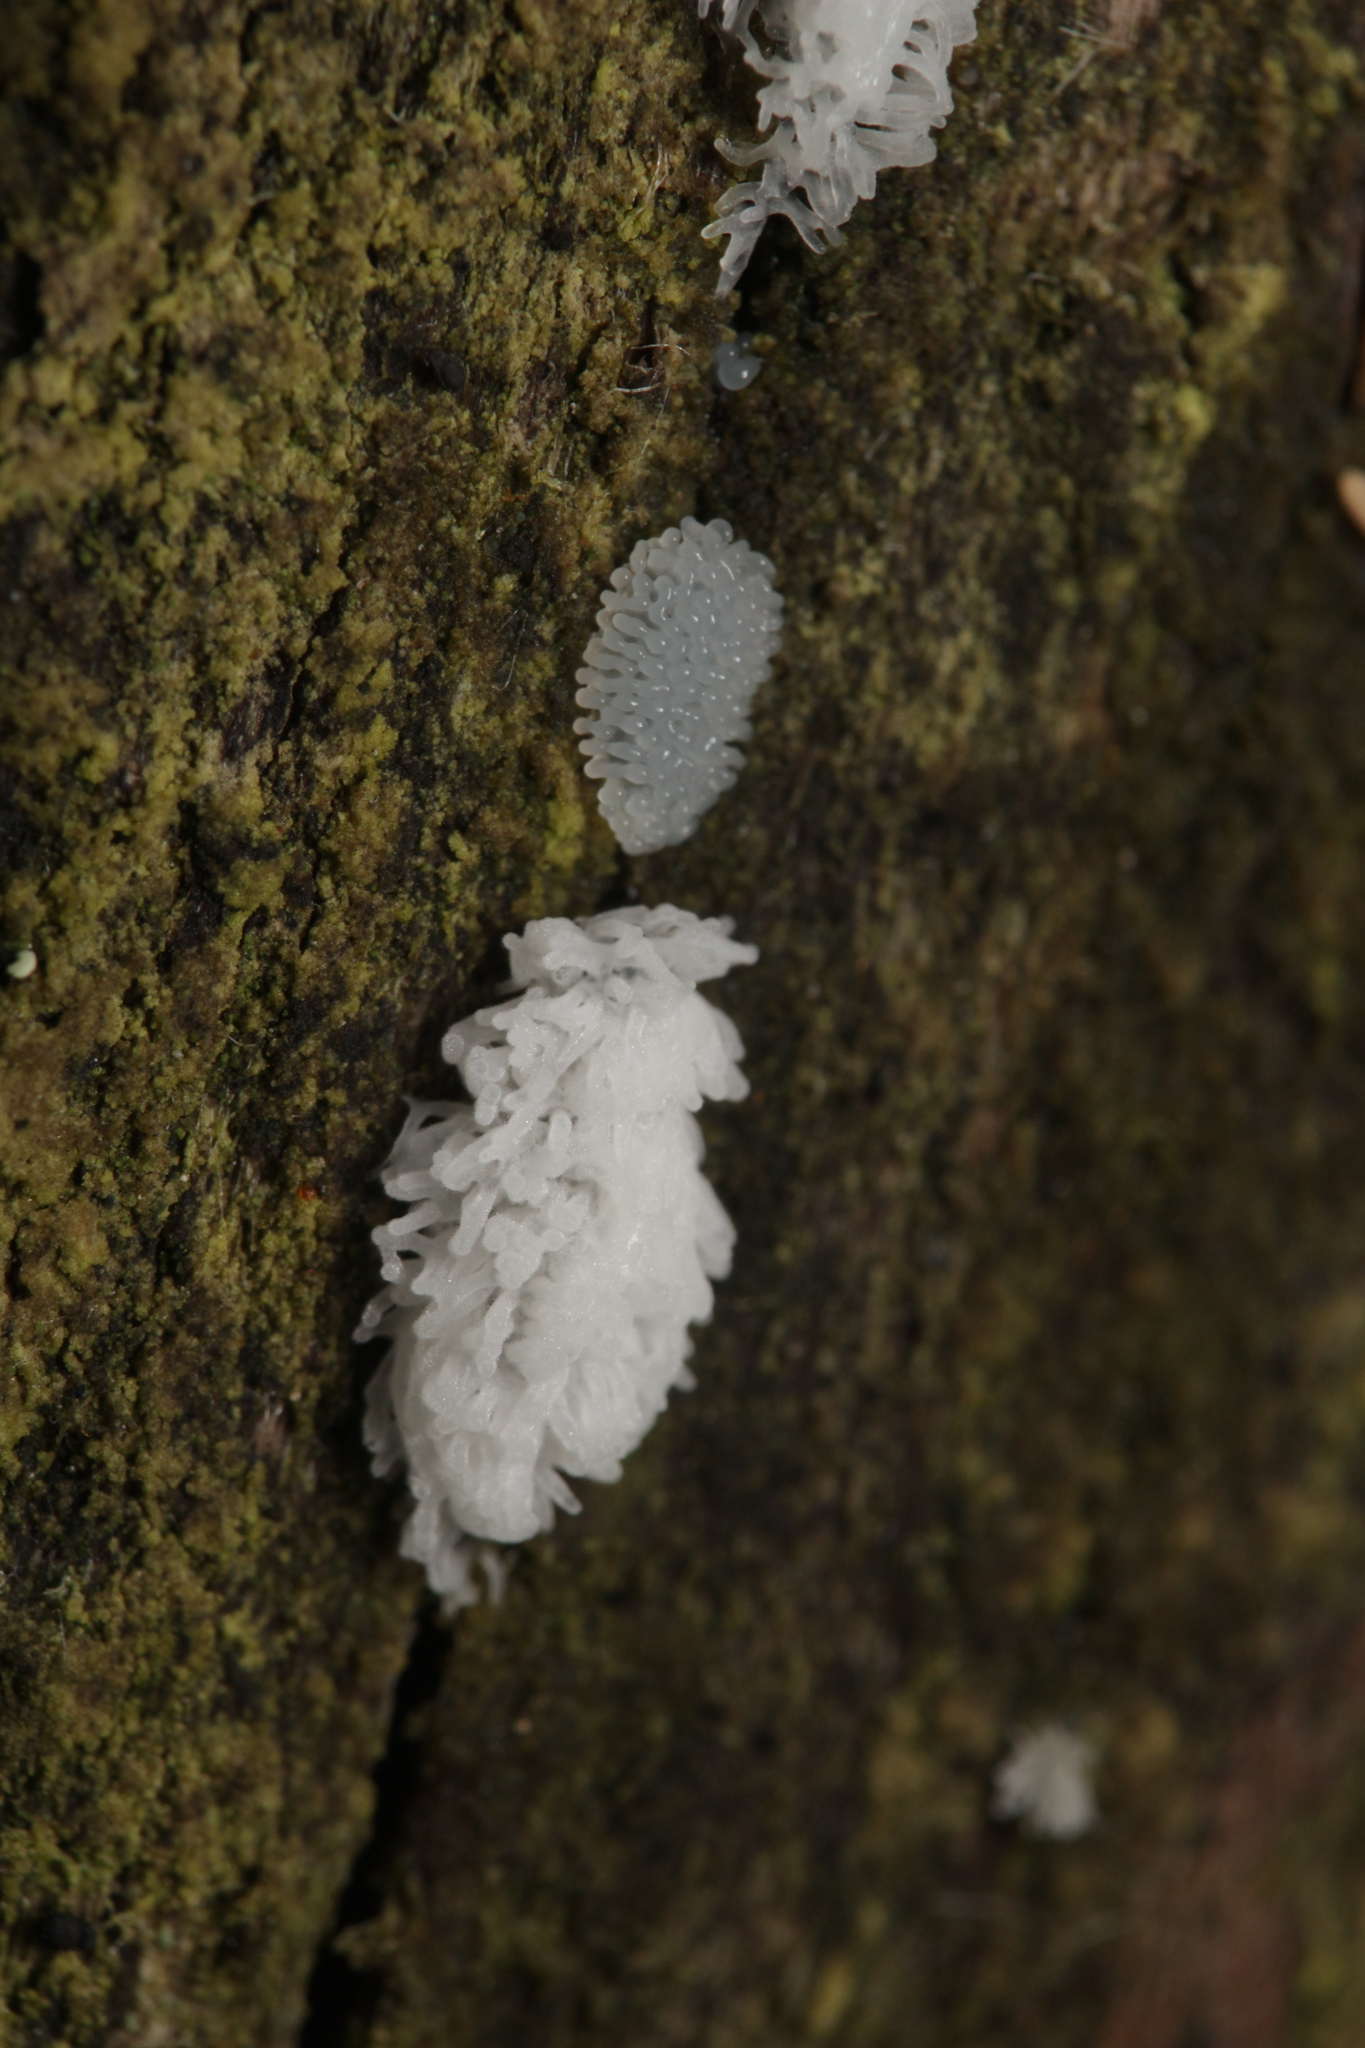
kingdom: Protozoa
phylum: Mycetozoa
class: Protosteliomycetes
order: Ceratiomyxales
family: Ceratiomyxaceae
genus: Ceratiomyxa
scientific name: Ceratiomyxa fruticulosa
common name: Honeycomb coral slime mold
